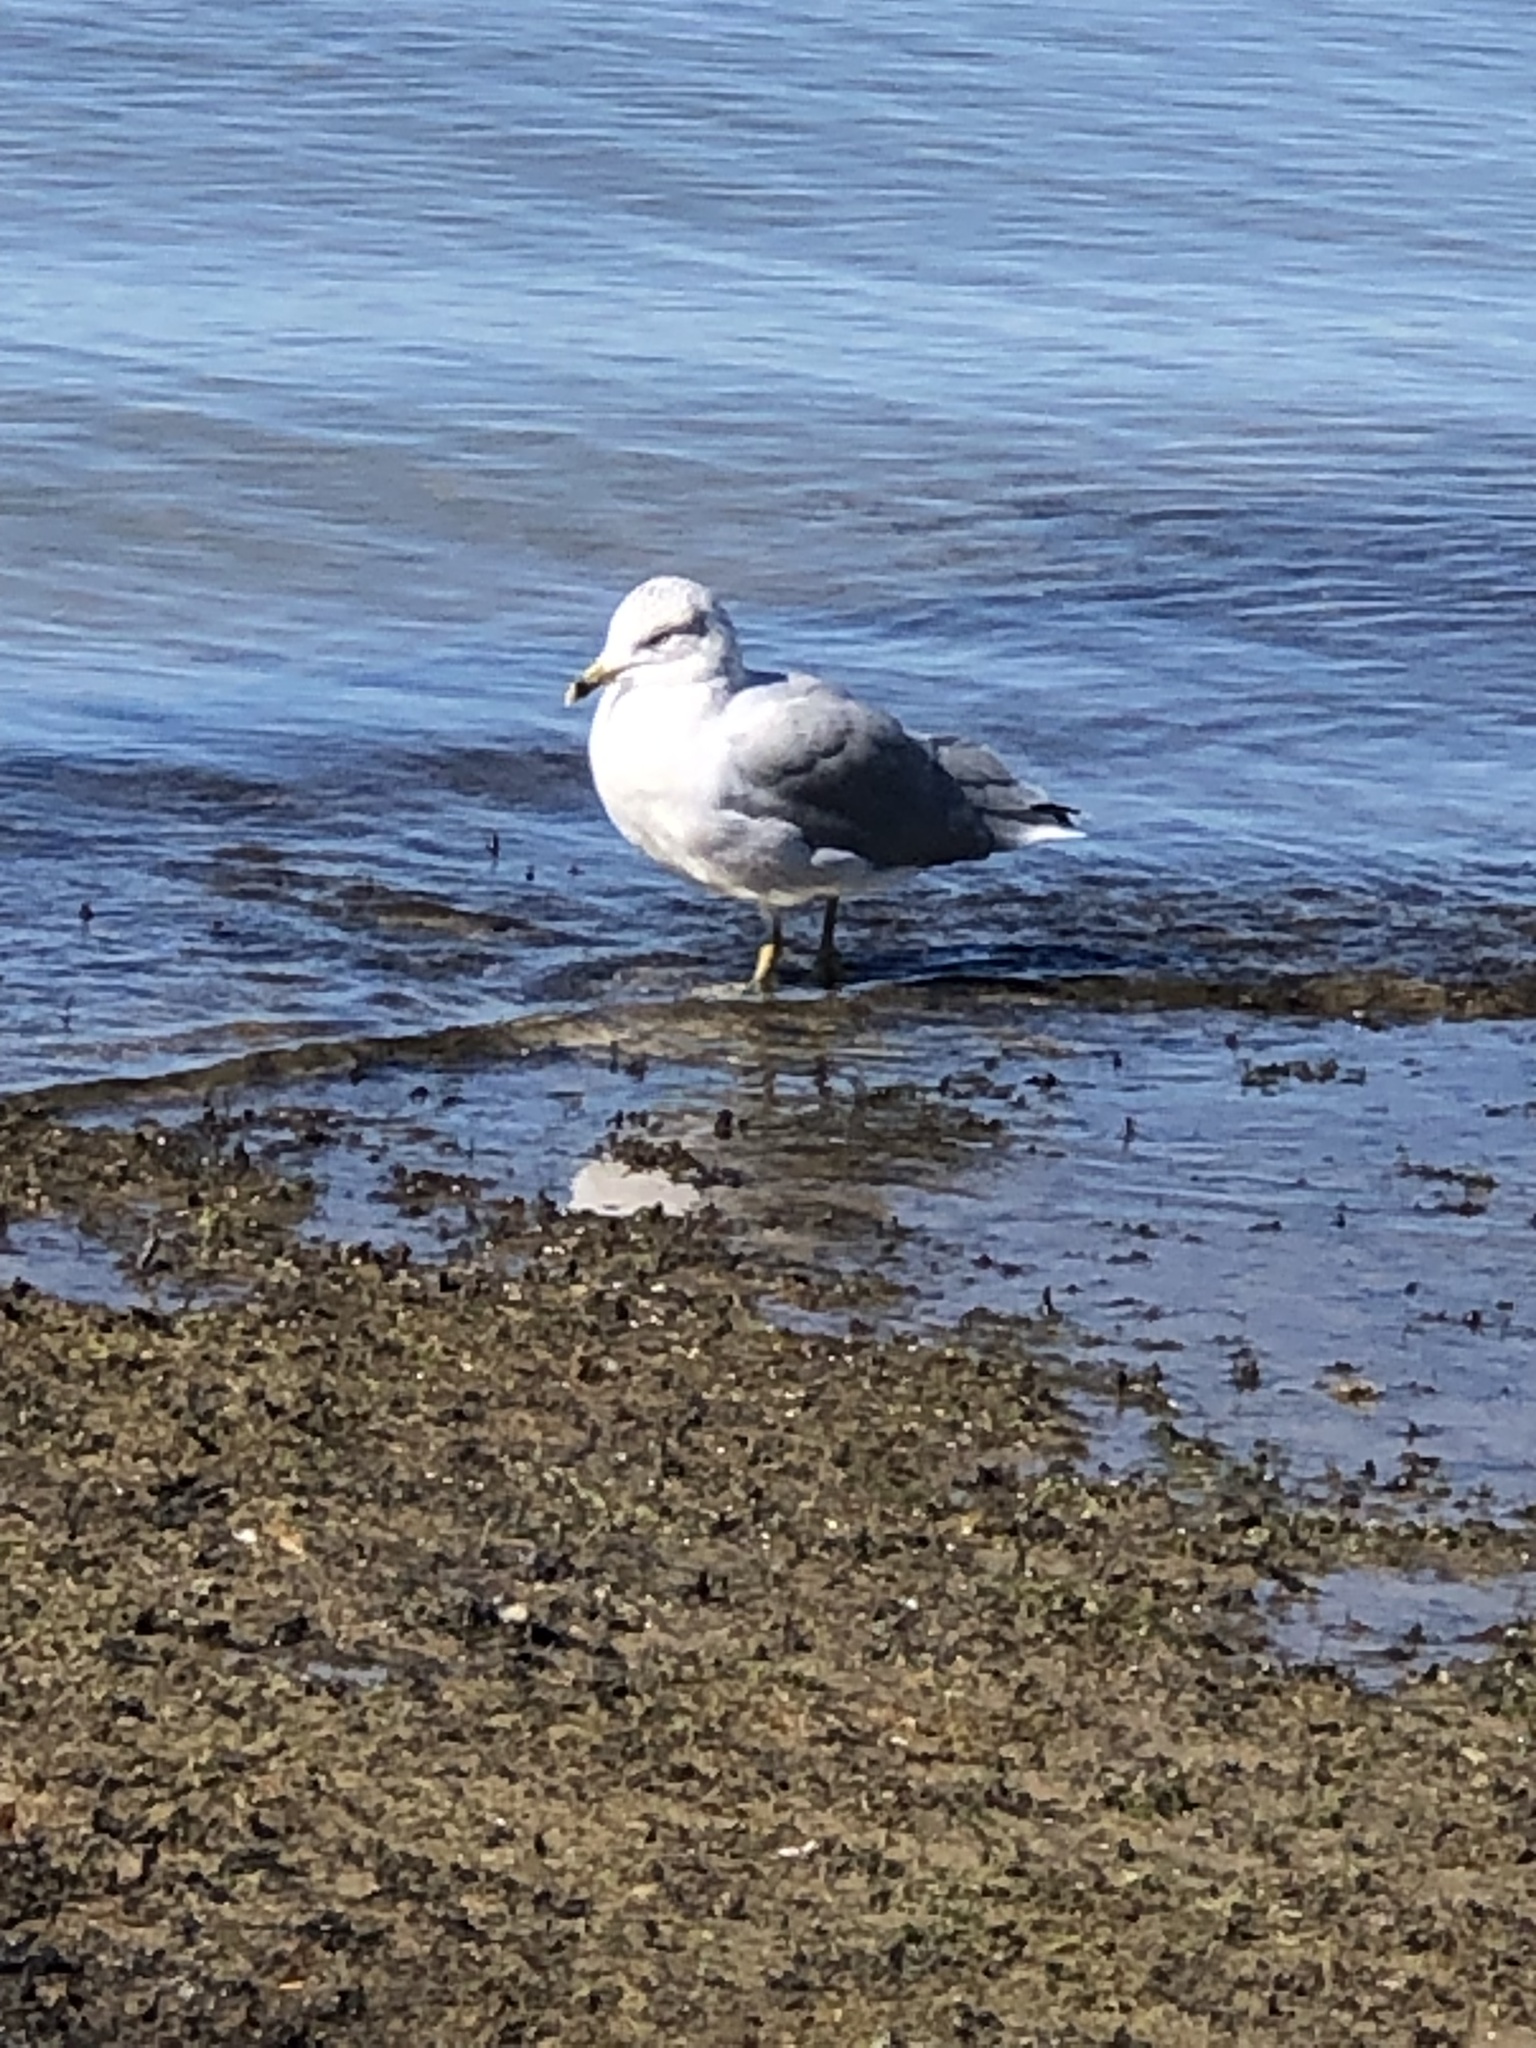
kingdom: Animalia
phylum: Chordata
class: Aves
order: Charadriiformes
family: Laridae
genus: Larus
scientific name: Larus delawarensis
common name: Ring-billed gull
